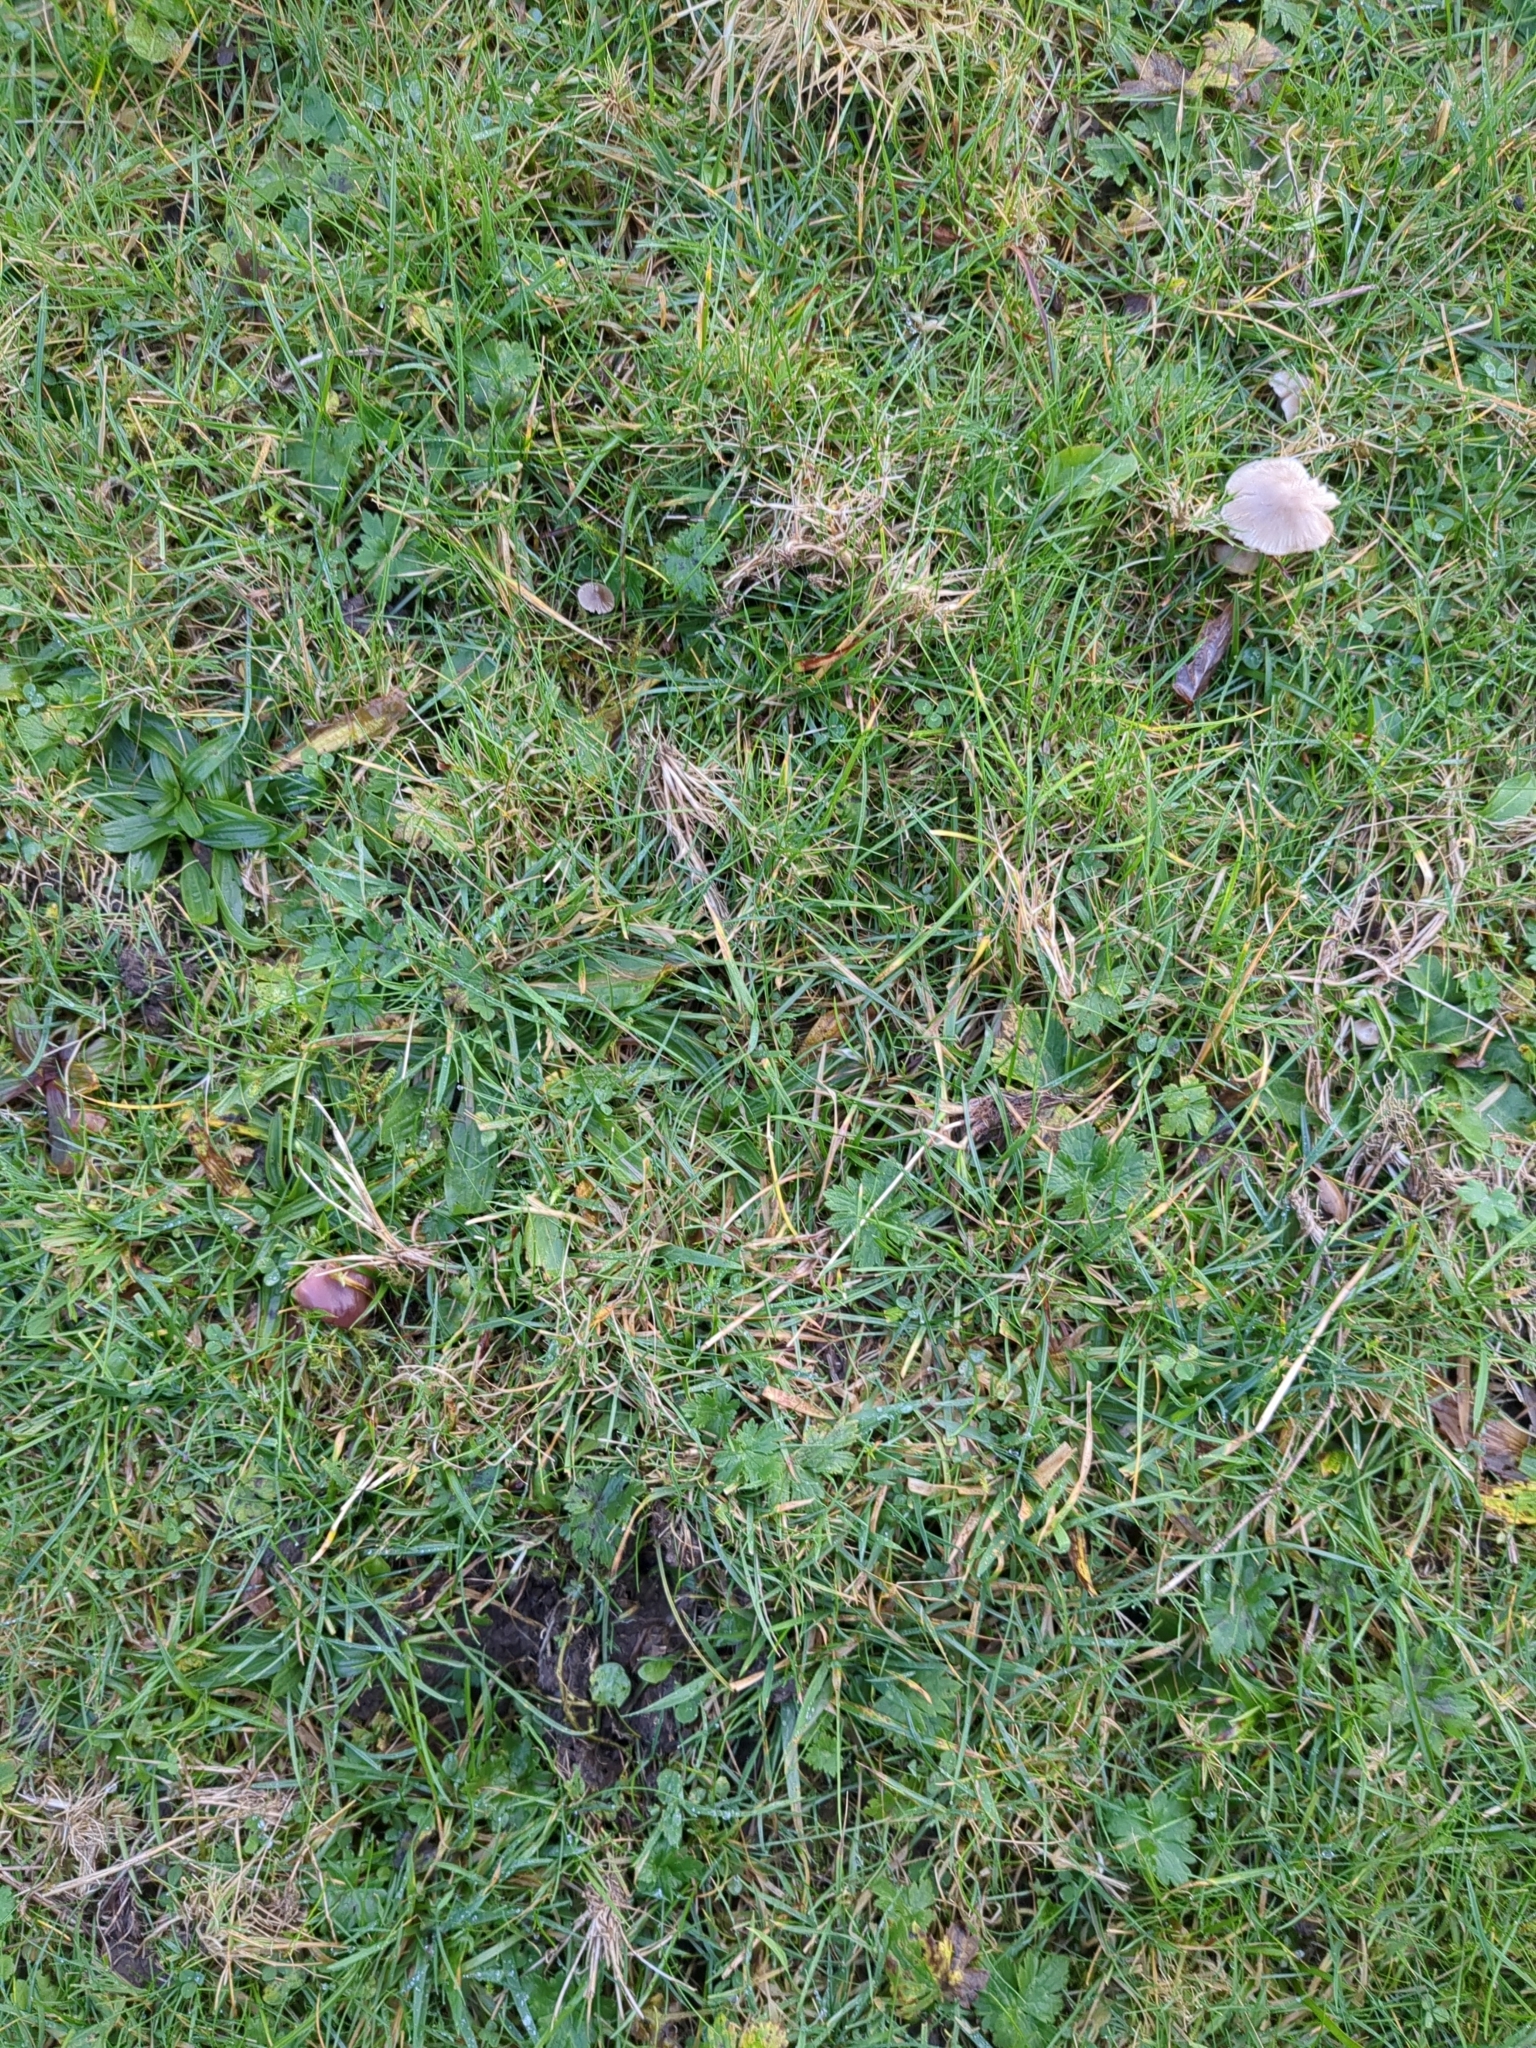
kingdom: Fungi
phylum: Basidiomycota
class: Agaricomycetes
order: Agaricales
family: Hygrophoraceae
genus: Gliophorus
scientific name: Gliophorus irrigatus
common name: Slimy waxcap
